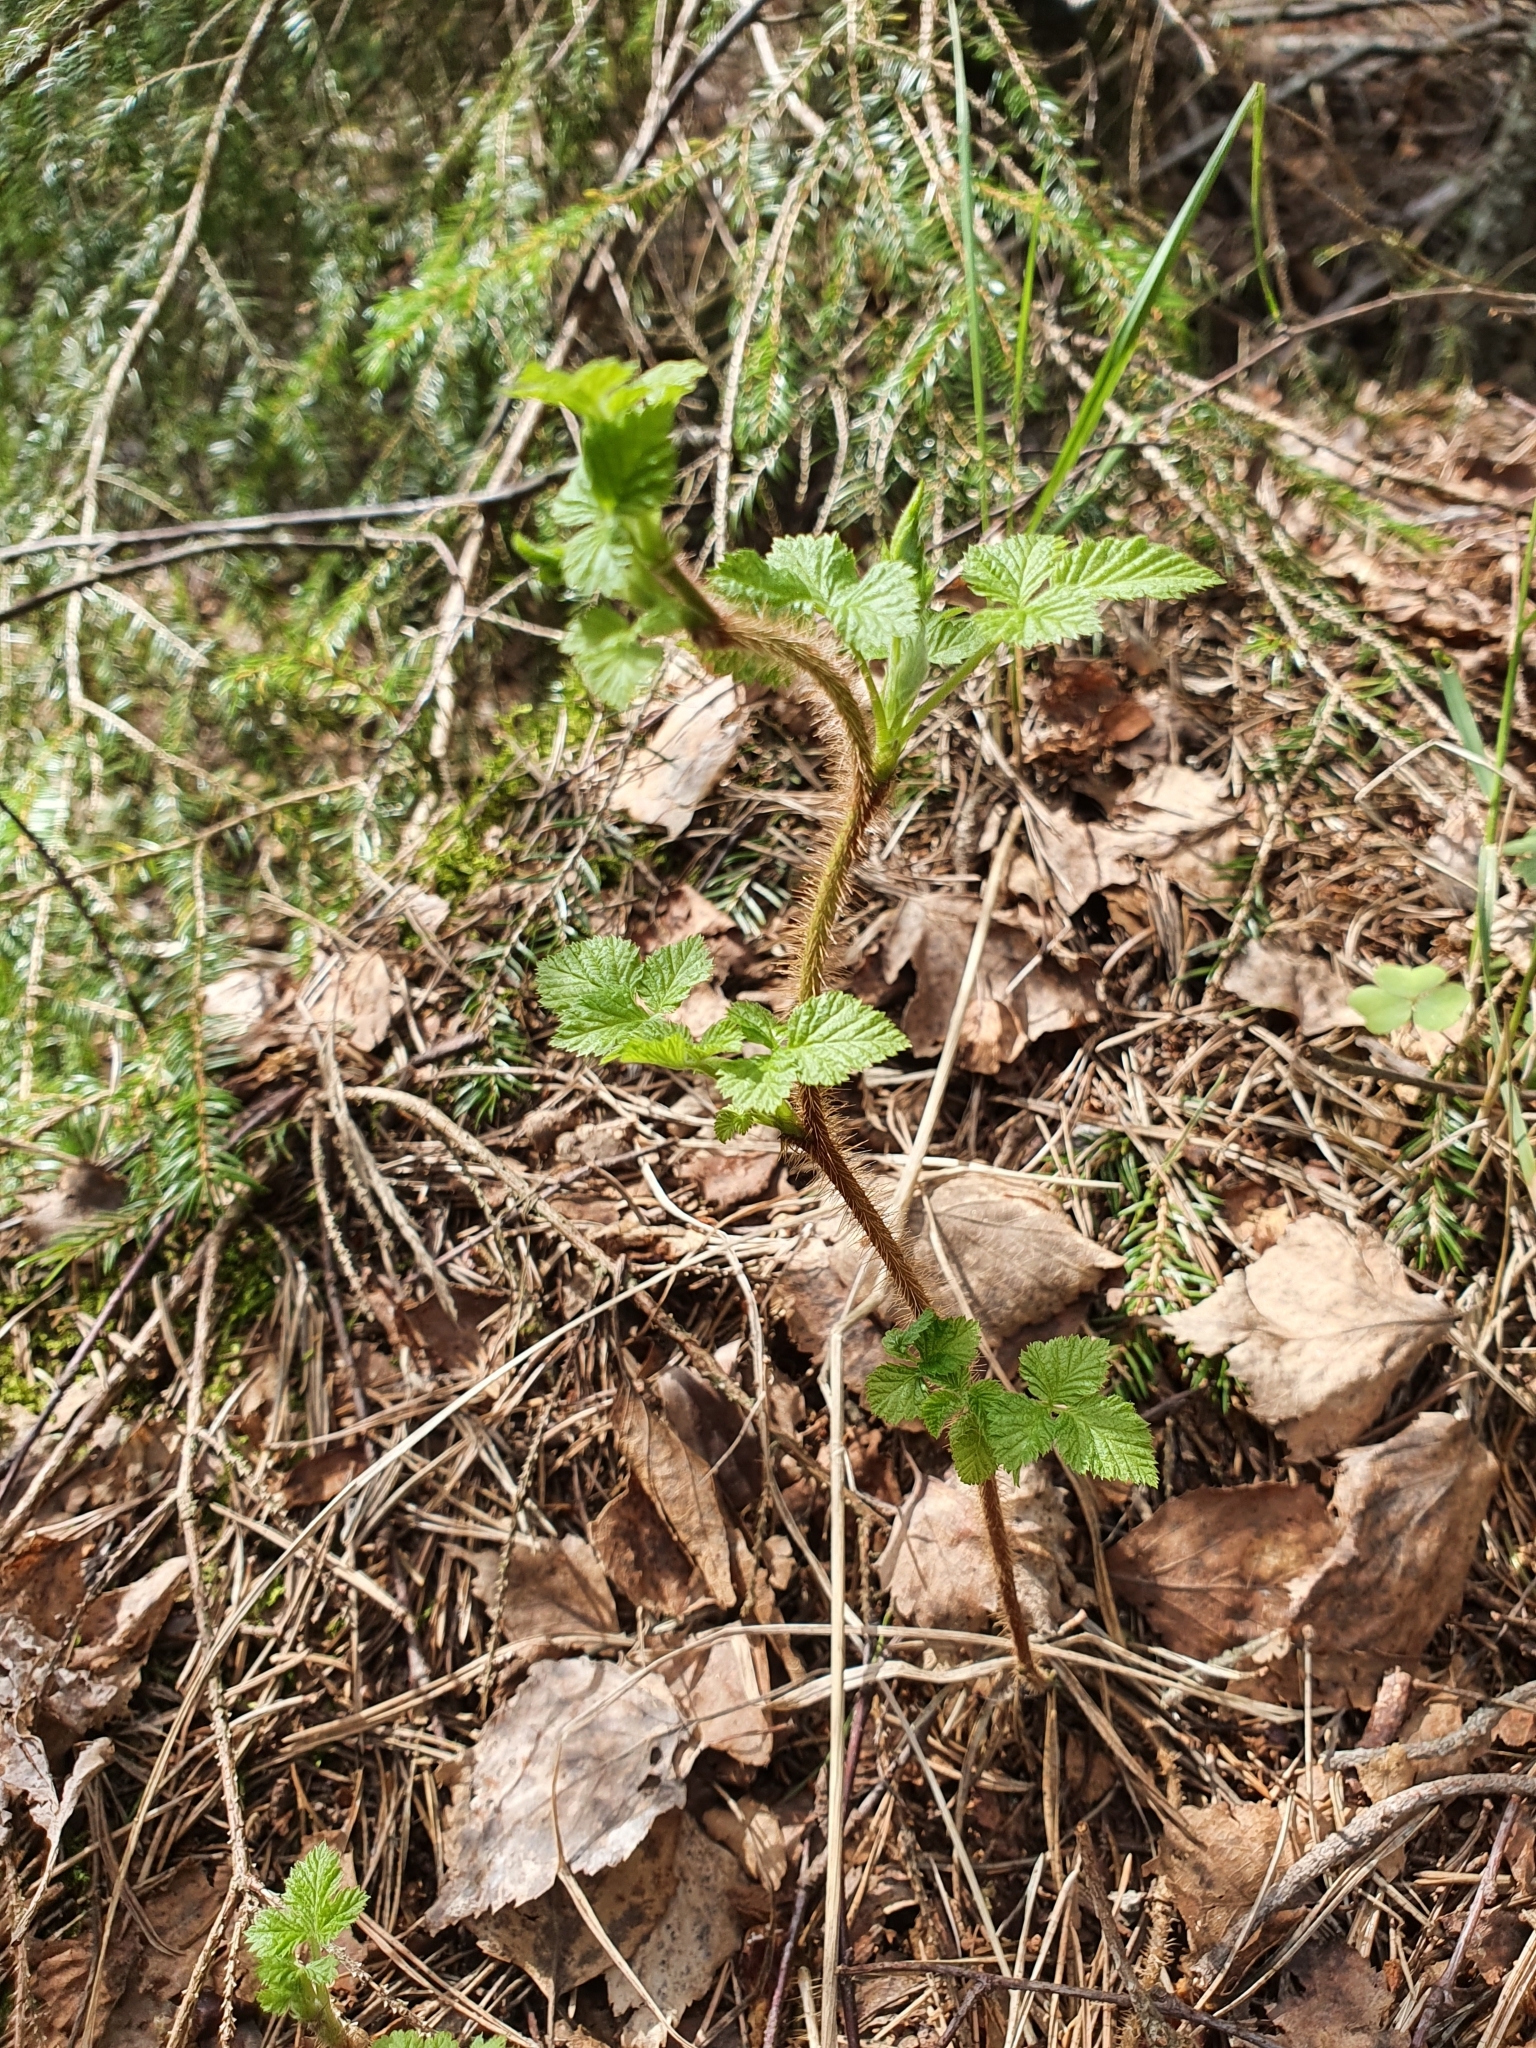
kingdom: Plantae
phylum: Tracheophyta
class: Magnoliopsida
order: Rosales
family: Rosaceae
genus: Rubus
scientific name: Rubus idaeus
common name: Raspberry
